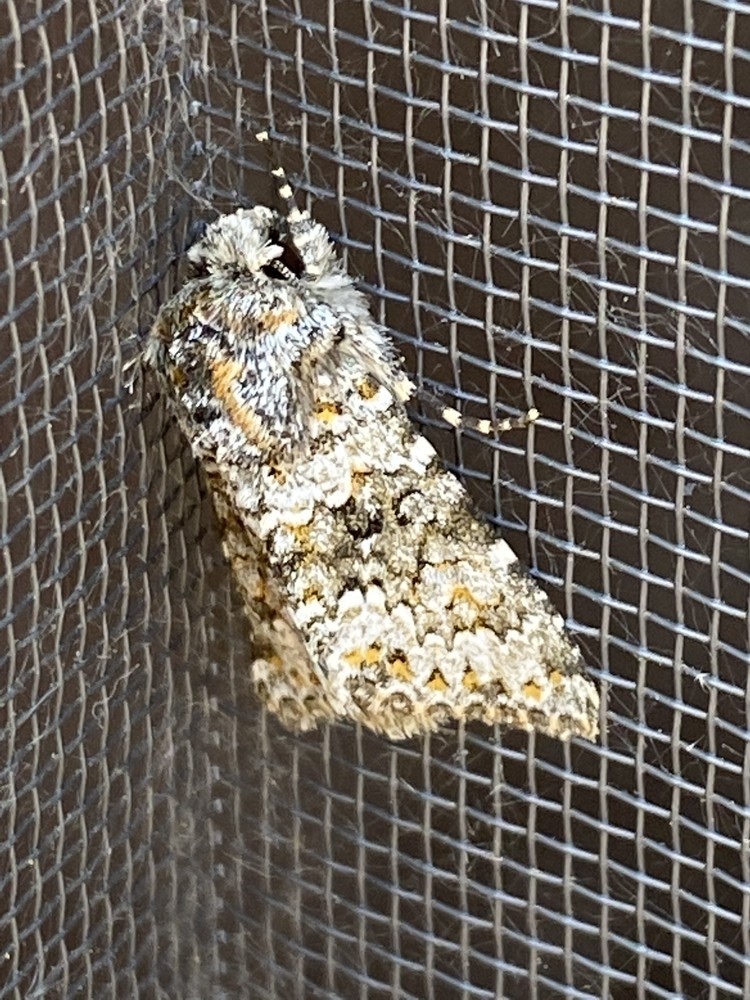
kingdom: Animalia
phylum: Arthropoda
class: Insecta
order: Lepidoptera
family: Noctuidae
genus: Hecatera
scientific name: Hecatera dysodea
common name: Small ranunculus
